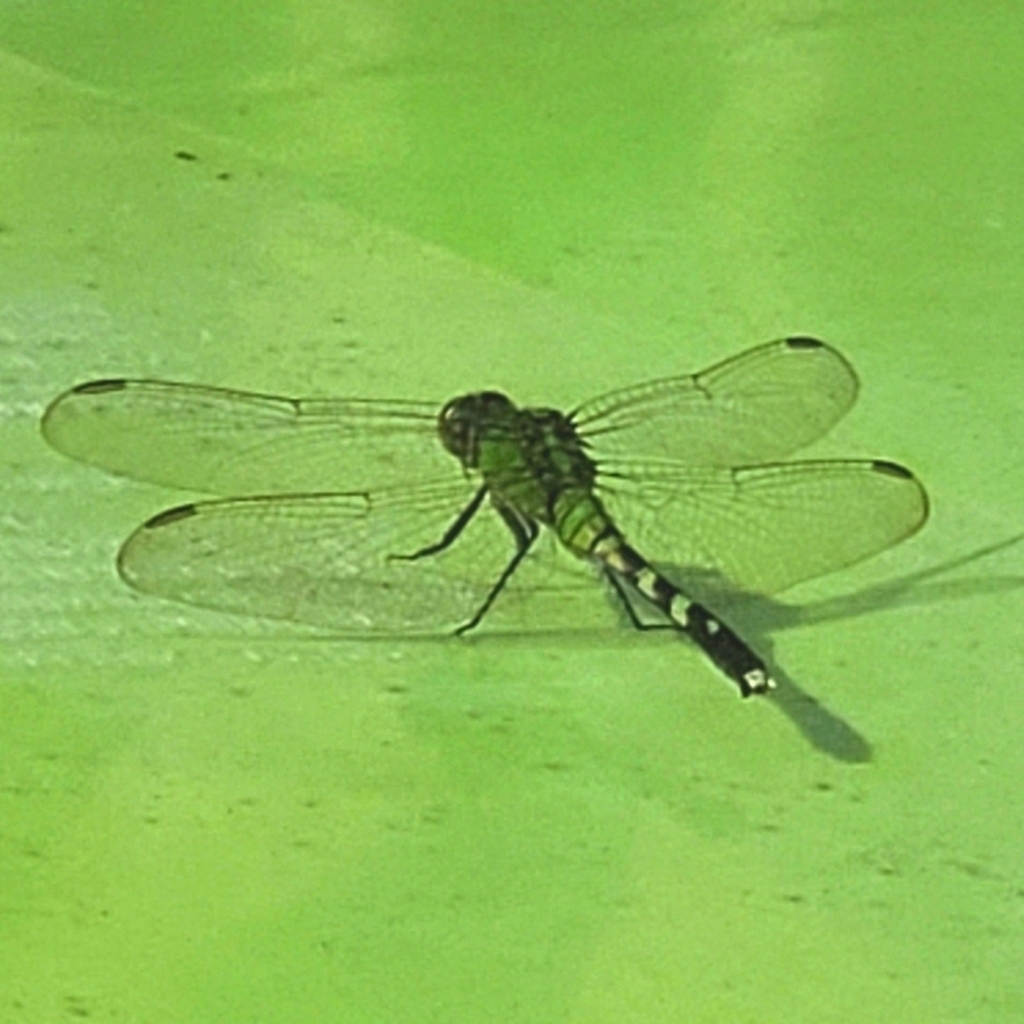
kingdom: Animalia
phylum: Arthropoda
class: Insecta
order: Odonata
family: Libellulidae
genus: Erythemis
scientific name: Erythemis simplicicollis
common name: Eastern pondhawk
